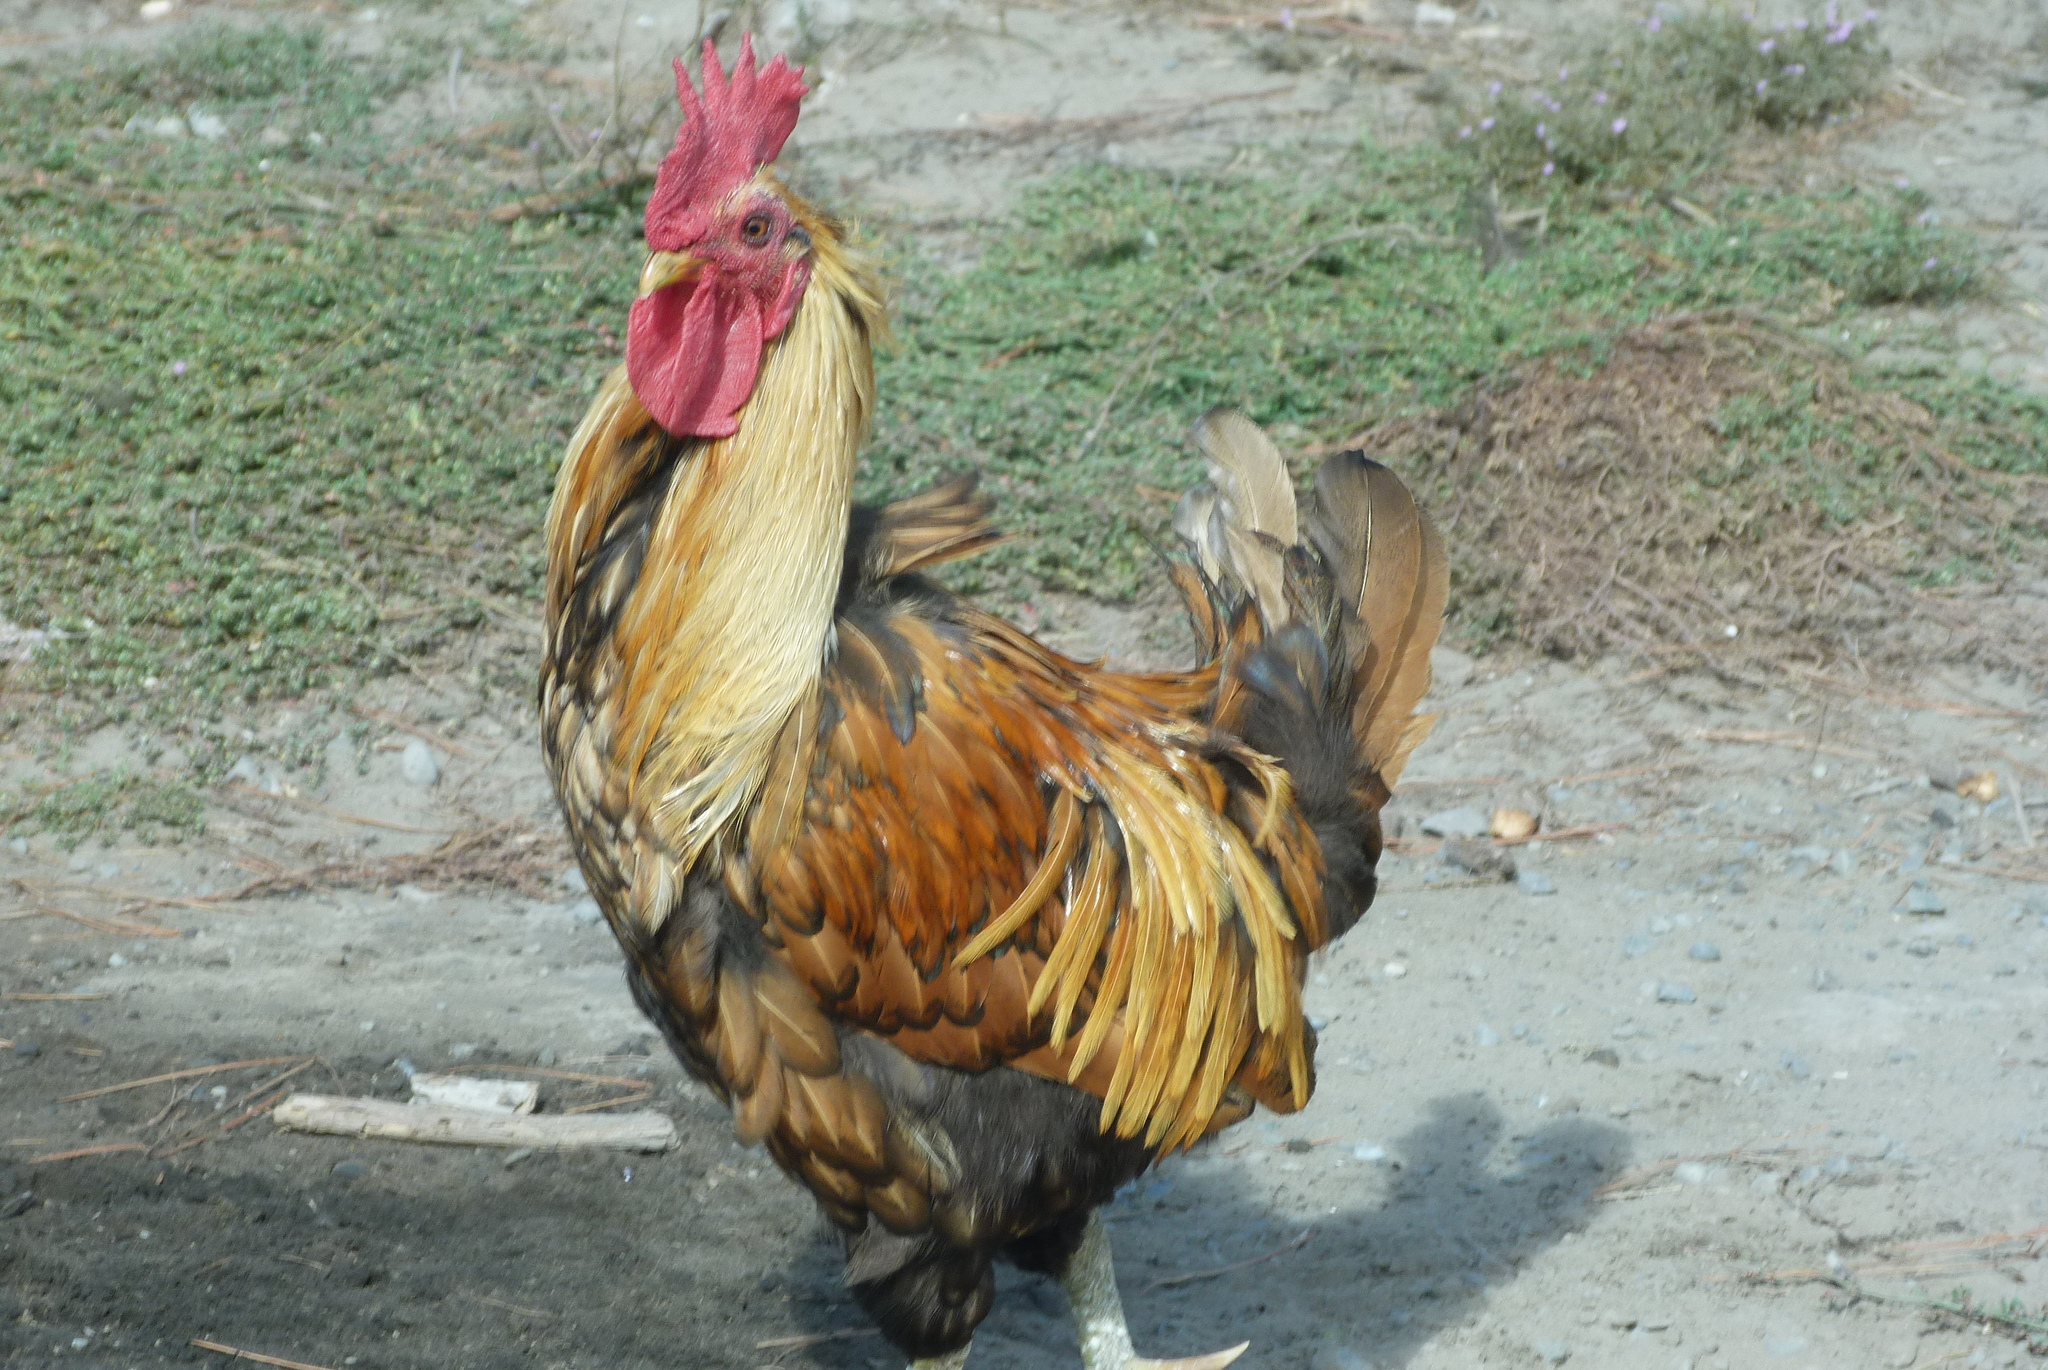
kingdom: Animalia
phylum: Chordata
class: Aves
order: Galliformes
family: Phasianidae
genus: Gallus
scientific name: Gallus gallus
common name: Red junglefowl
